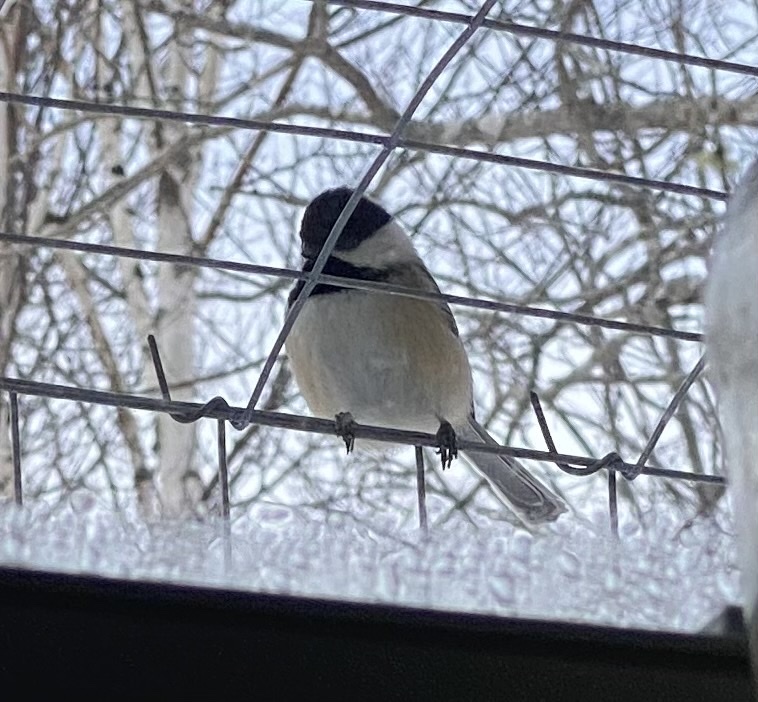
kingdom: Animalia
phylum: Chordata
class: Aves
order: Passeriformes
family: Paridae
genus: Poecile
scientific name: Poecile atricapillus
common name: Black-capped chickadee
